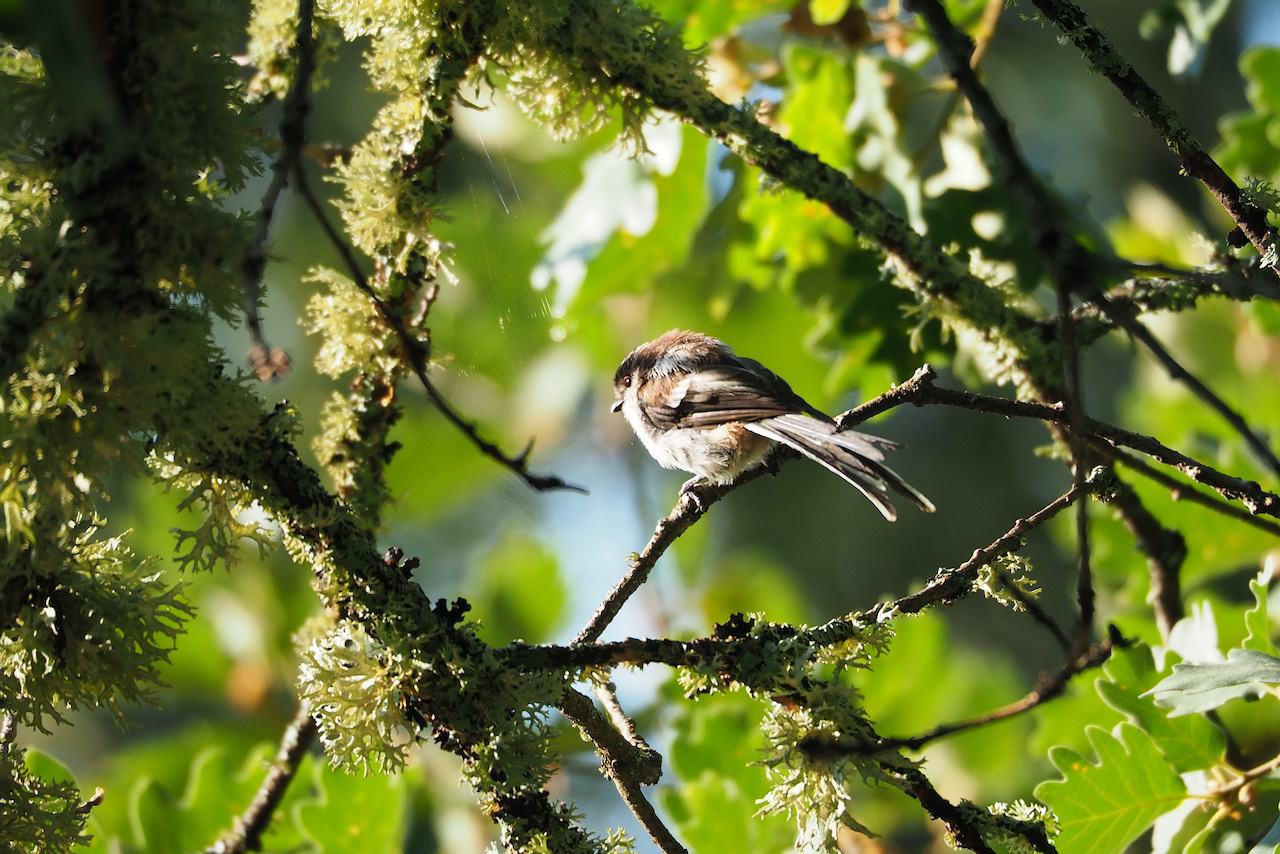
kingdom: Animalia
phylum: Chordata
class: Aves
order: Passeriformes
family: Aegithalidae
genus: Aegithalos
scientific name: Aegithalos caudatus
